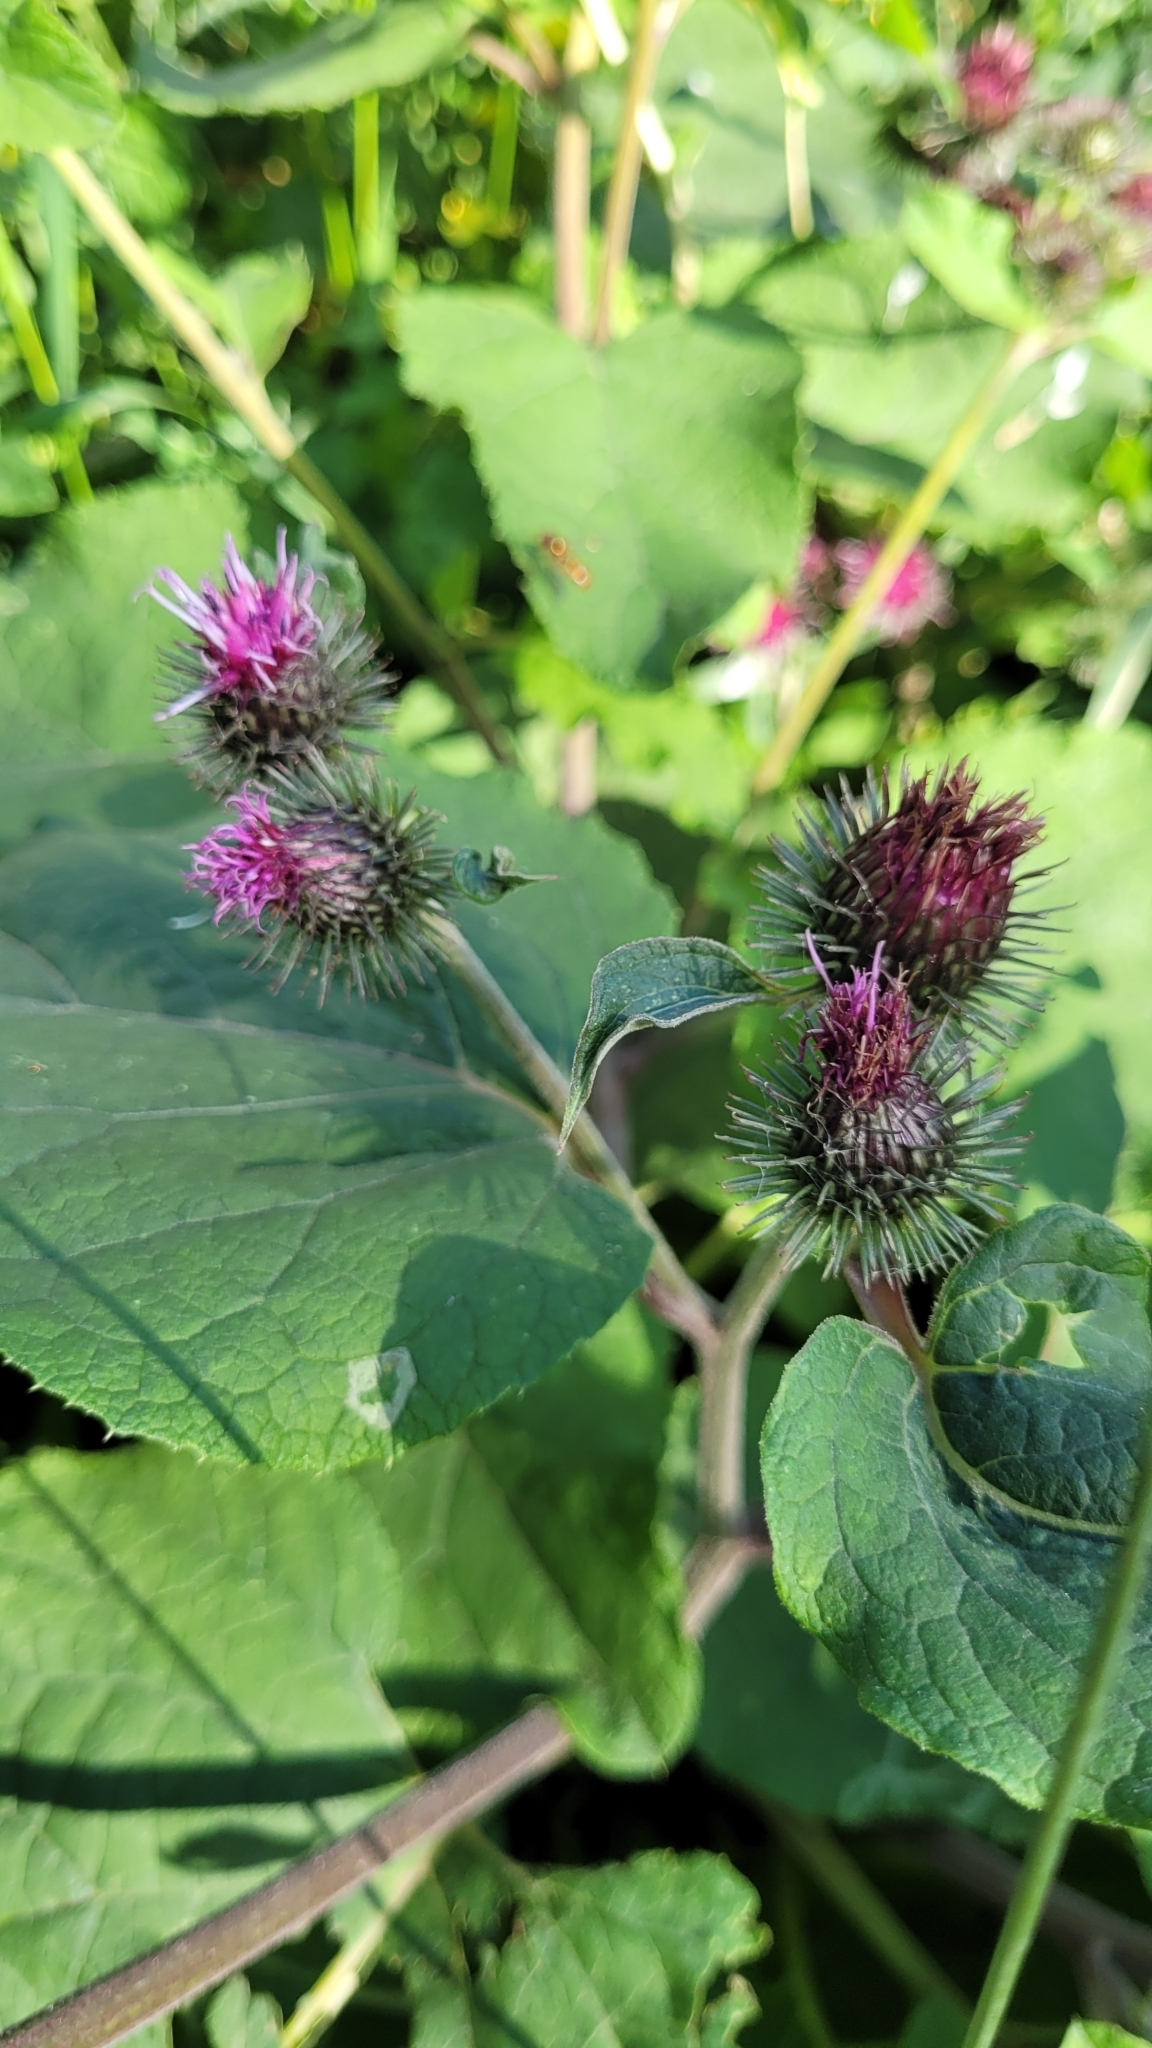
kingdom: Plantae
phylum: Tracheophyta
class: Magnoliopsida
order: Asterales
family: Asteraceae
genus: Arctium
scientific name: Arctium tomentosum
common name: Woolly burdock
